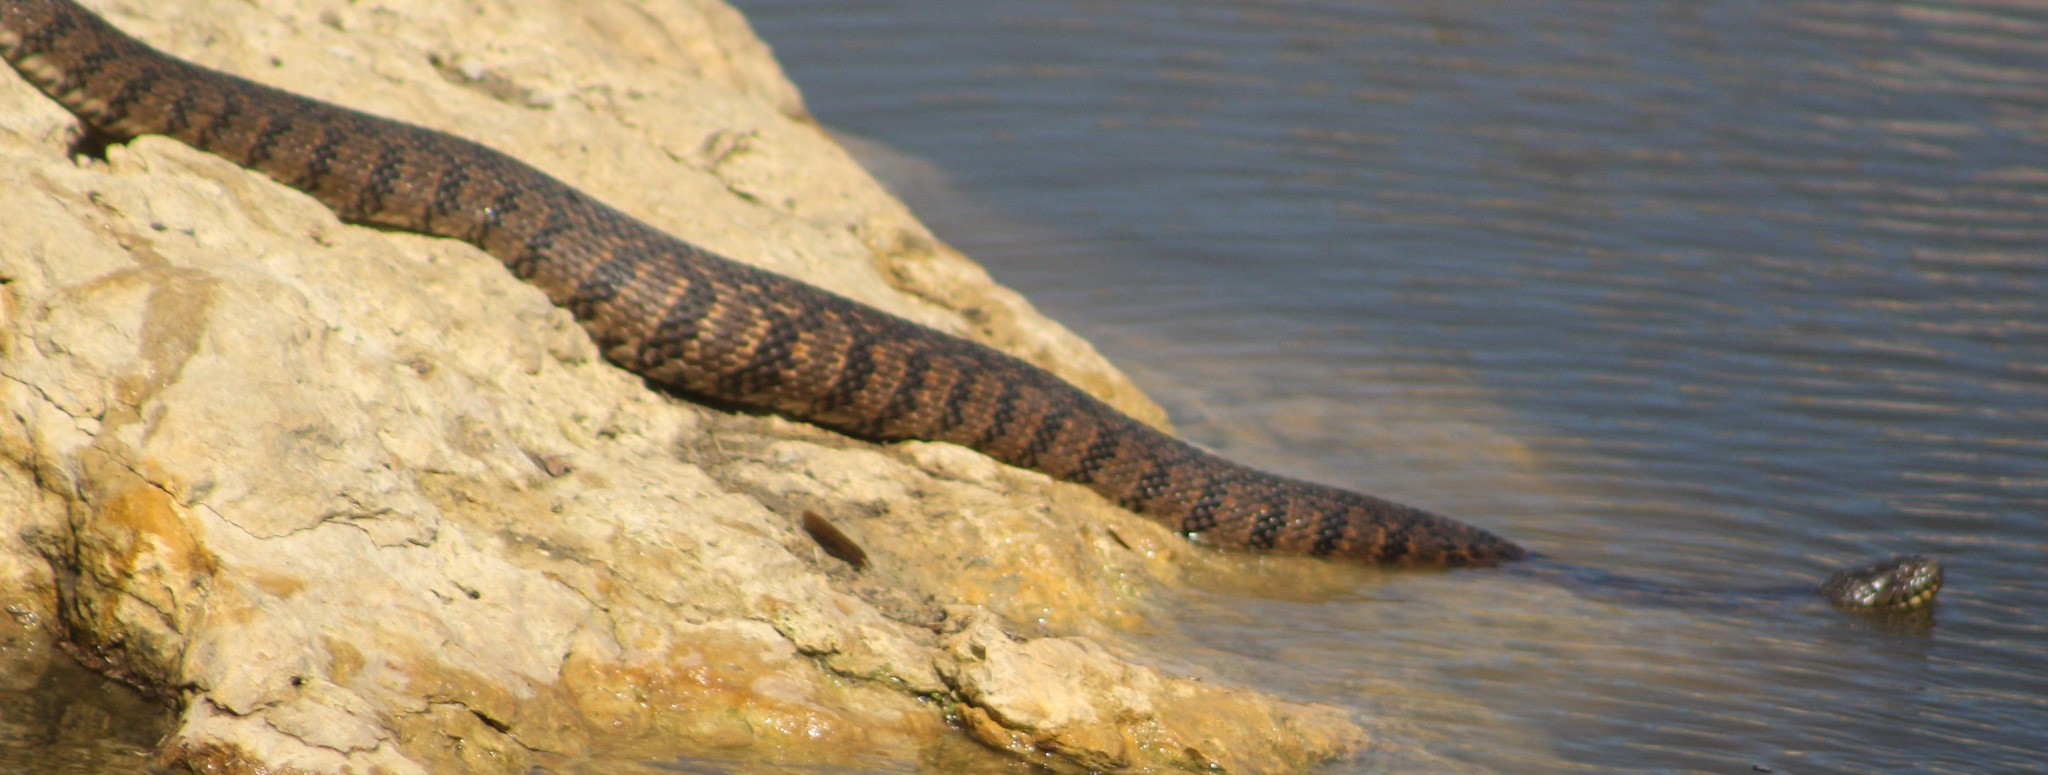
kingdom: Animalia
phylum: Chordata
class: Squamata
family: Colubridae
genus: Nerodia
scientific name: Nerodia rhombifer
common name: Diamondback water snake
